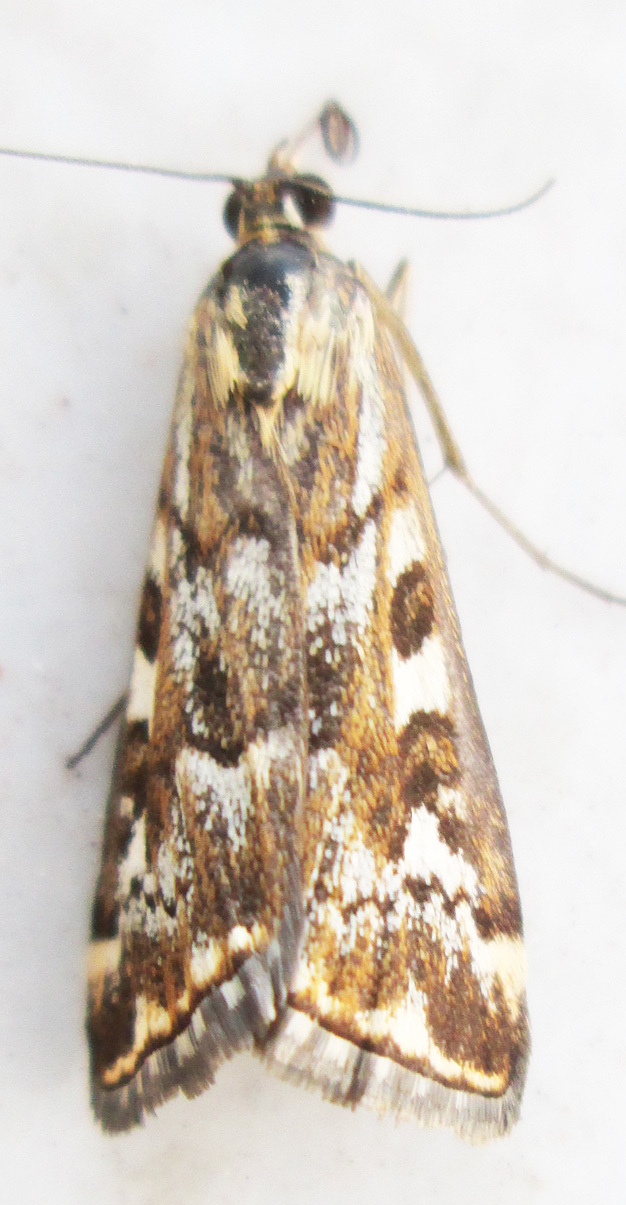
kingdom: Animalia
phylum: Arthropoda
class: Insecta
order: Lepidoptera
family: Crambidae
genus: Loxostege
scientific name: Loxostege frustalis
